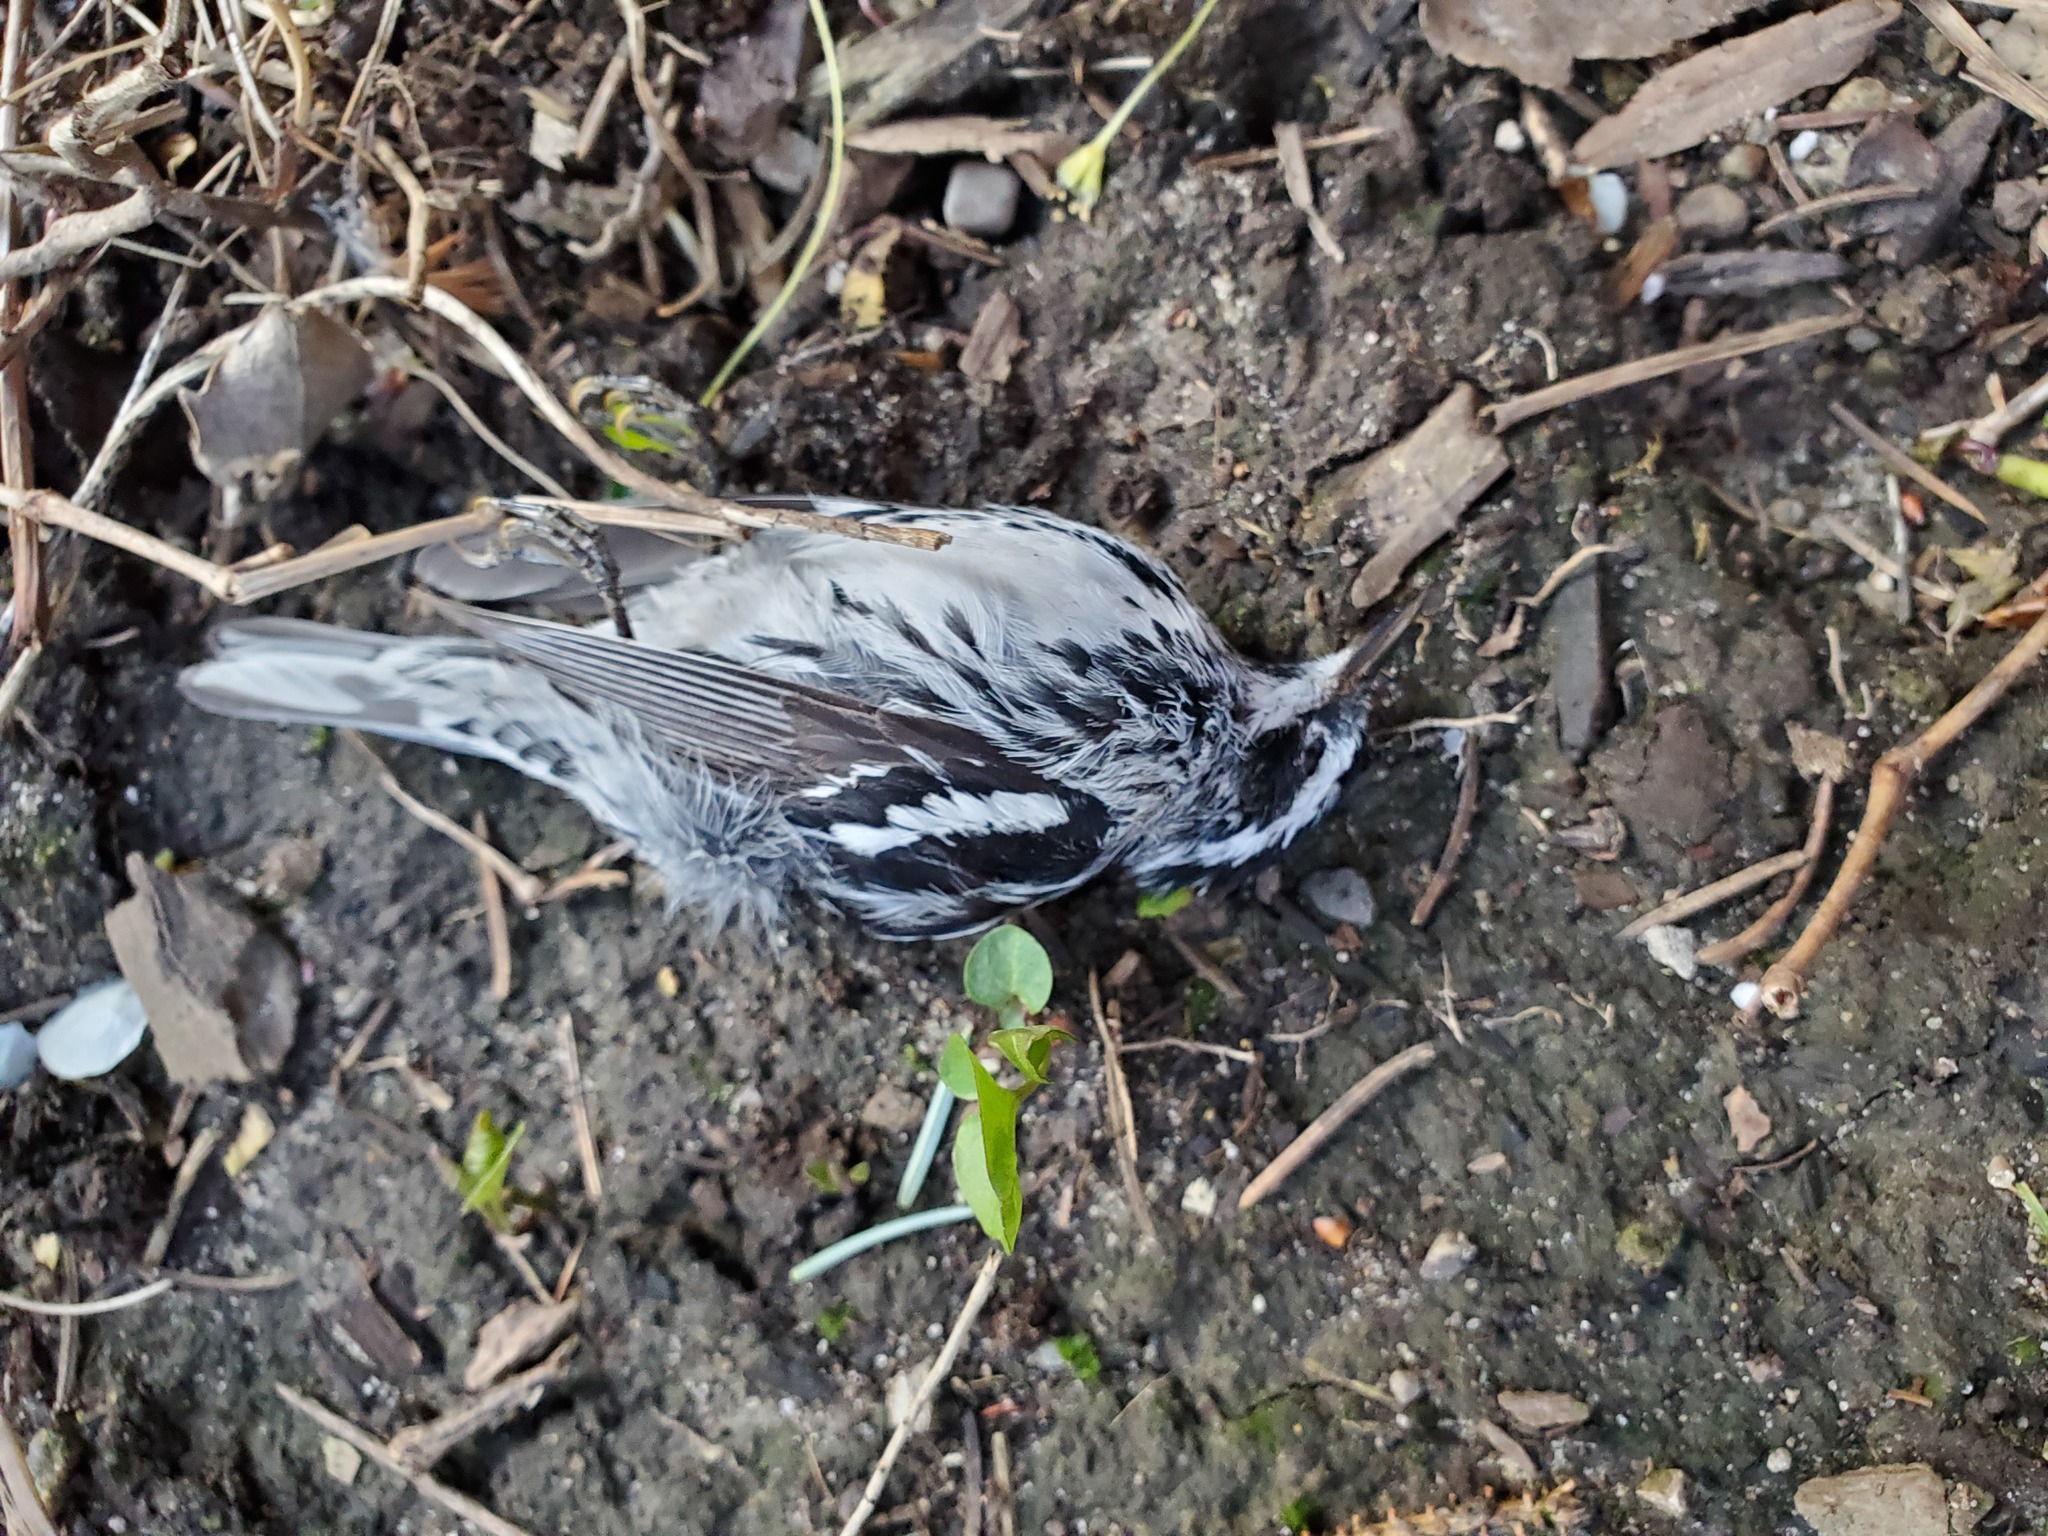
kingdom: Animalia
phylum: Chordata
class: Aves
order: Passeriformes
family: Parulidae
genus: Mniotilta
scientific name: Mniotilta varia
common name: Black-and-white warbler
